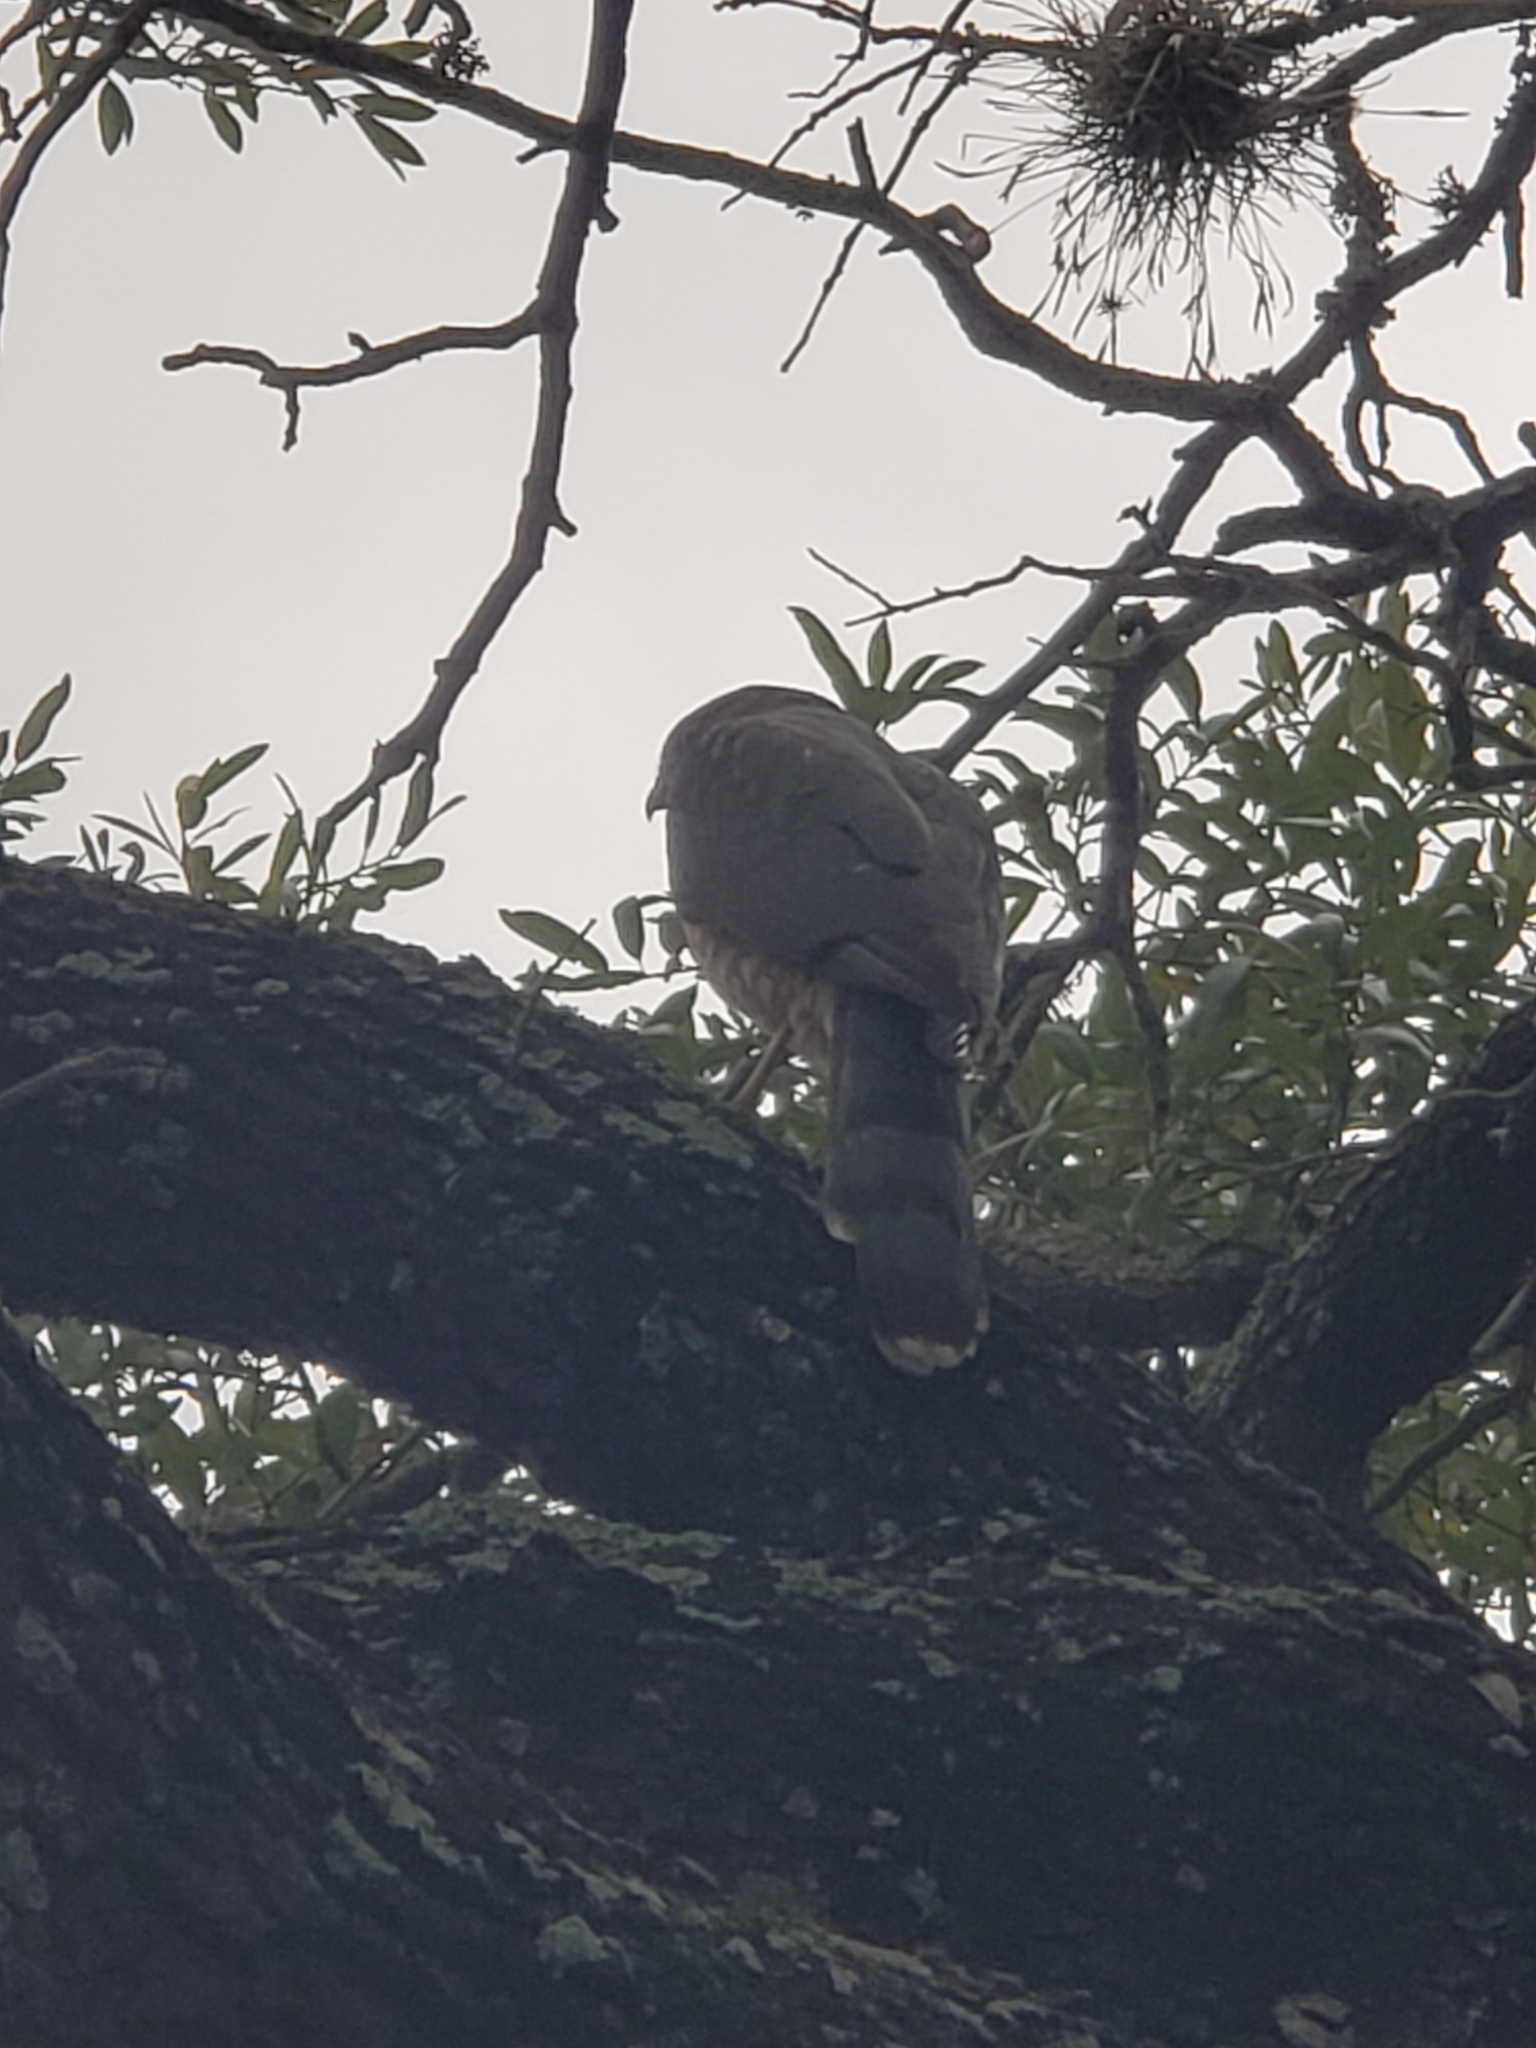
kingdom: Animalia
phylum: Chordata
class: Aves
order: Accipitriformes
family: Accipitridae
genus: Accipiter
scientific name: Accipiter cooperii
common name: Cooper's hawk
